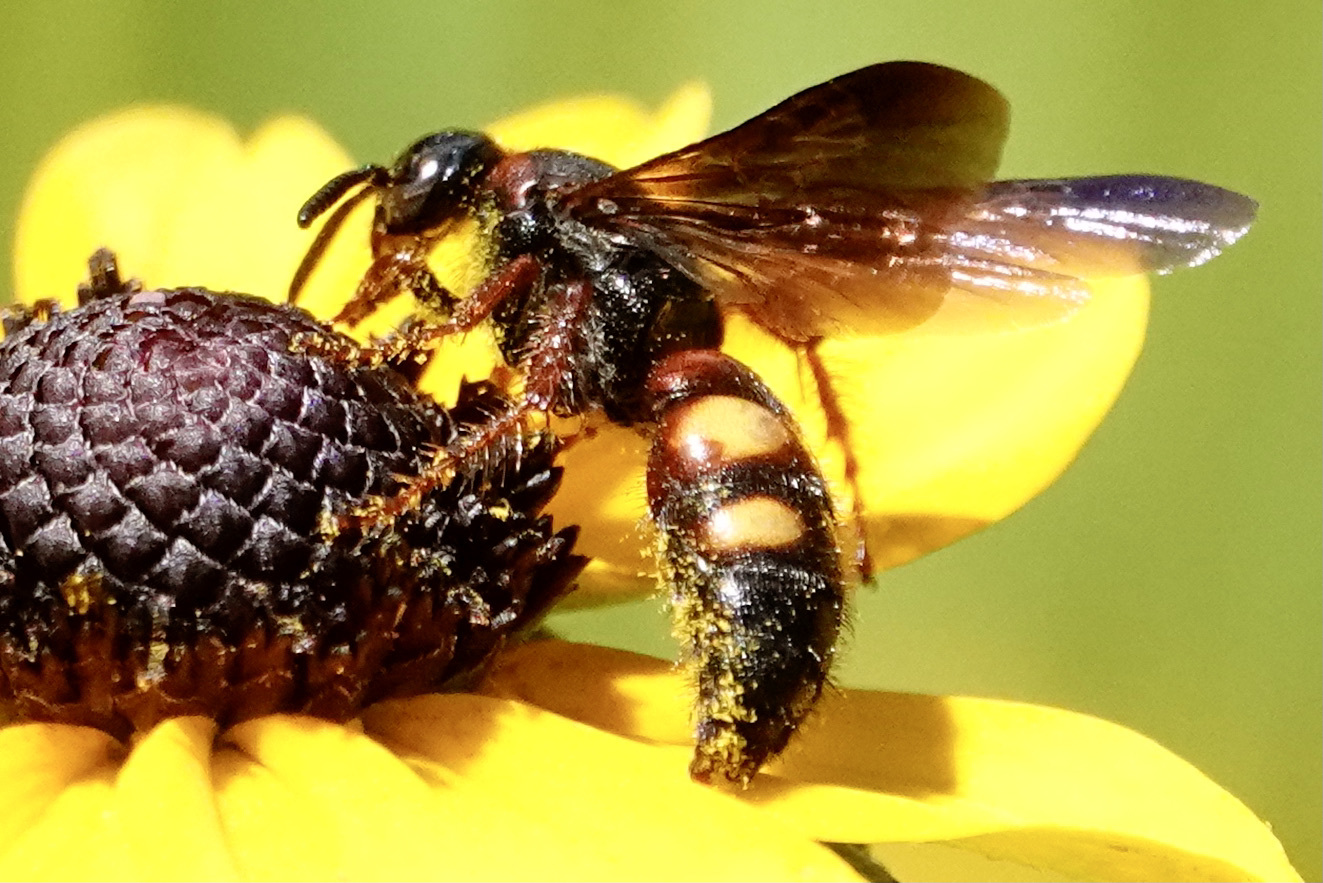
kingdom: Animalia
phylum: Arthropoda
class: Insecta
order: Hymenoptera
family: Scoliidae
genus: Scolia
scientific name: Scolia nobilitata
